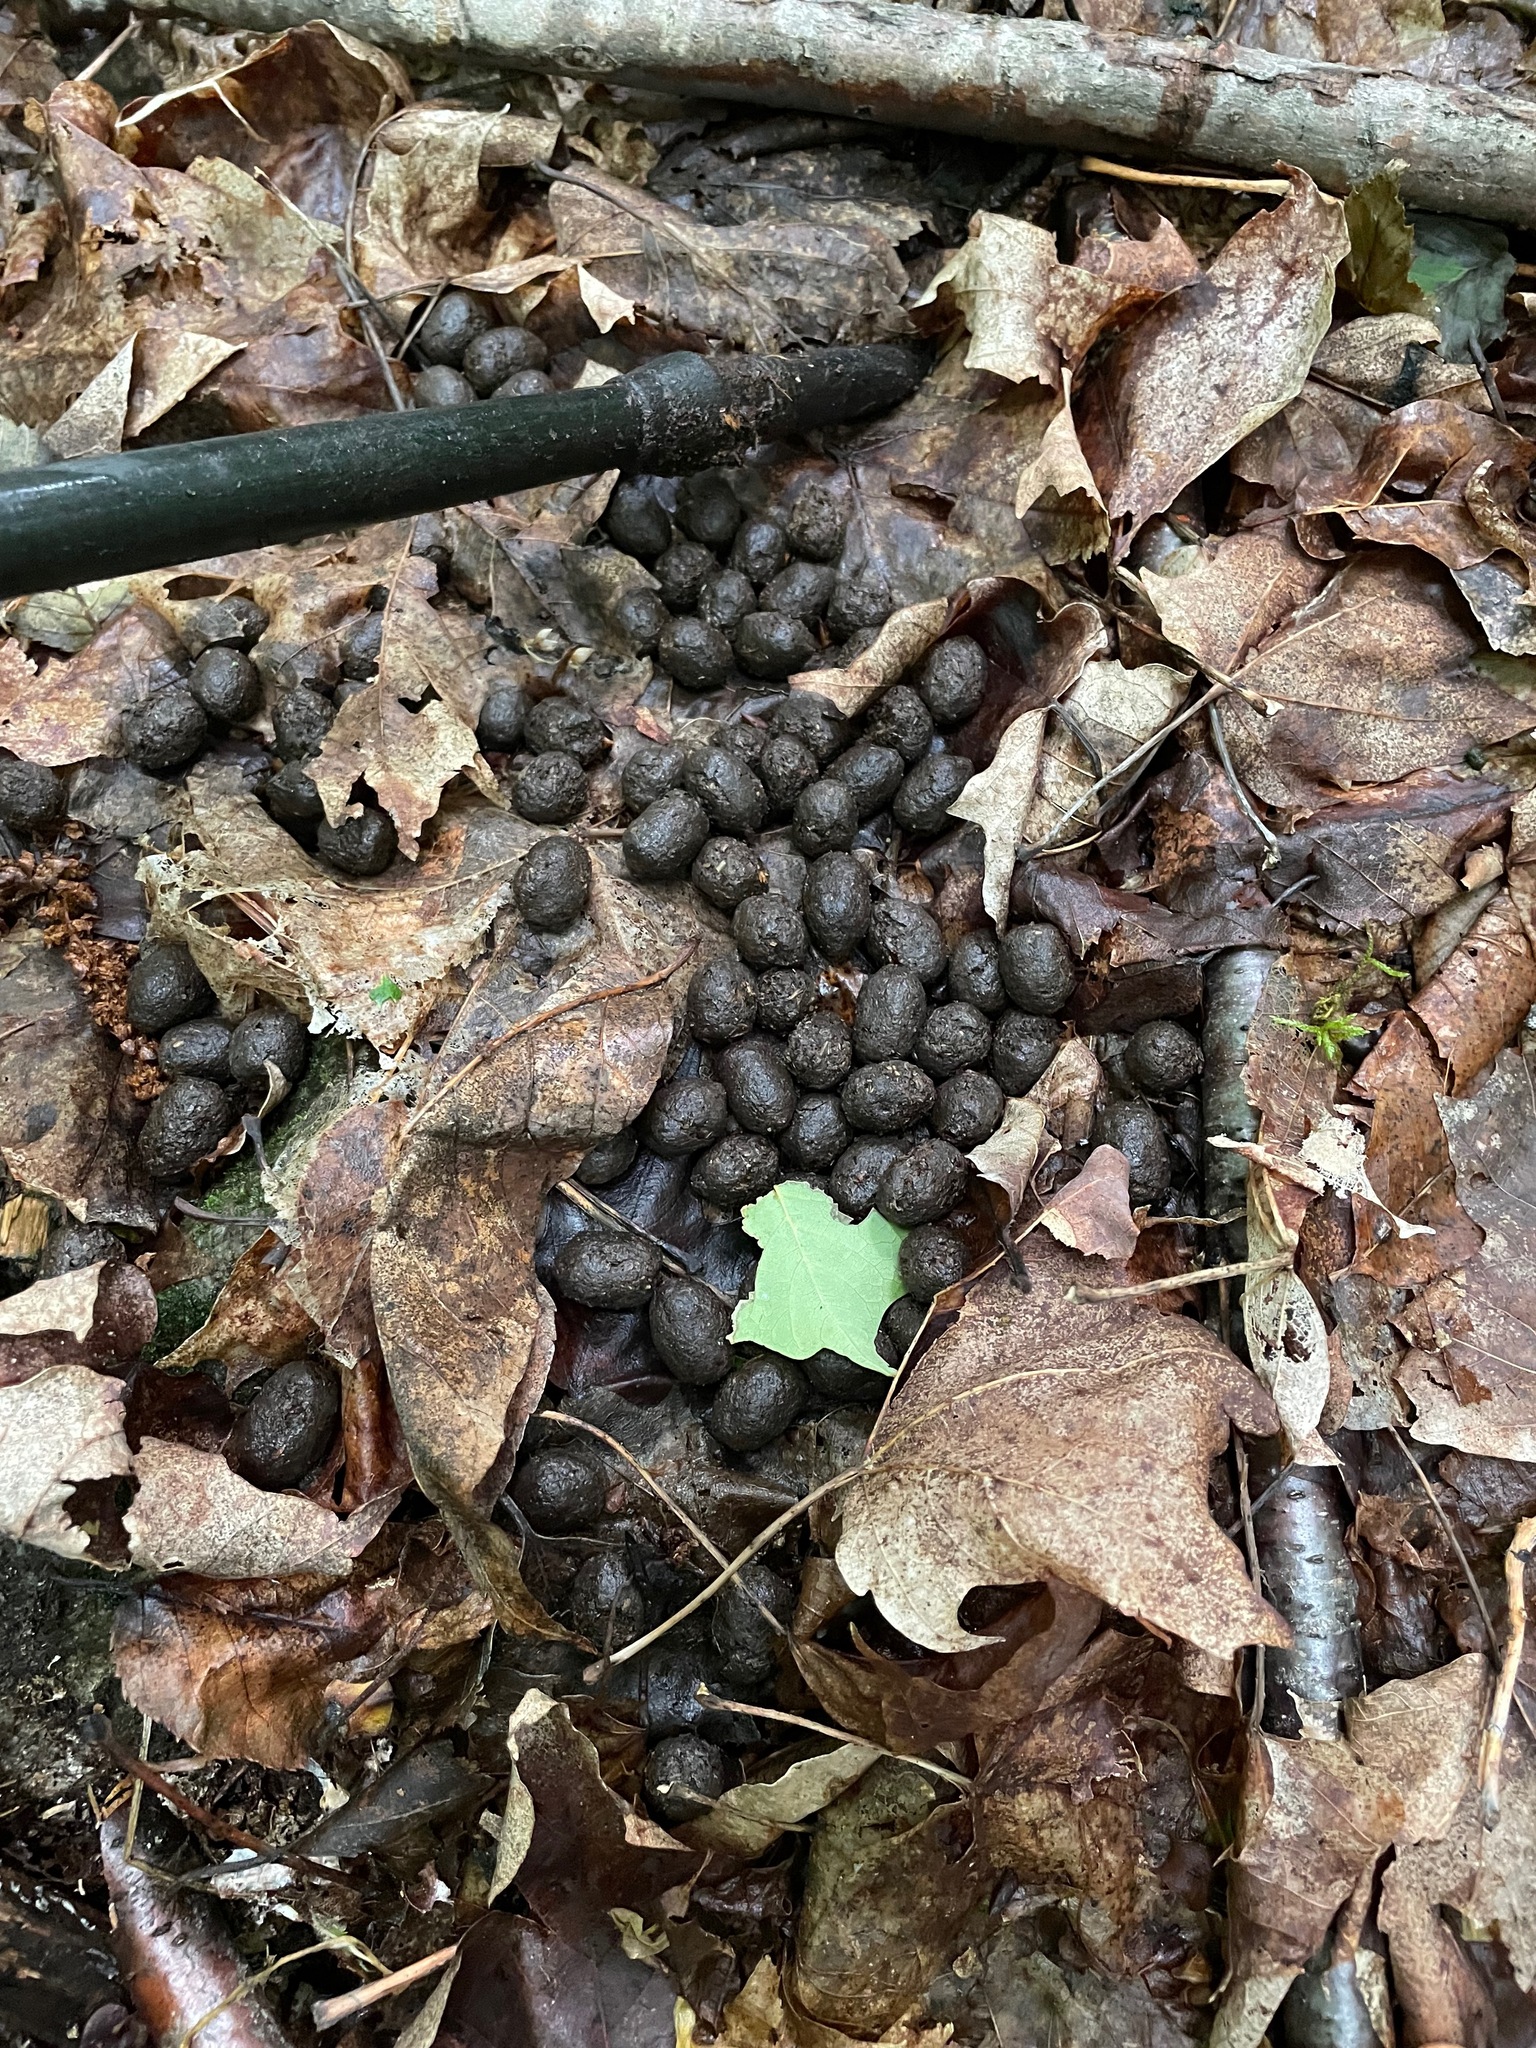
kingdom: Animalia
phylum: Chordata
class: Mammalia
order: Artiodactyla
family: Cervidae
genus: Odocoileus
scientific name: Odocoileus virginianus
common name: White-tailed deer
